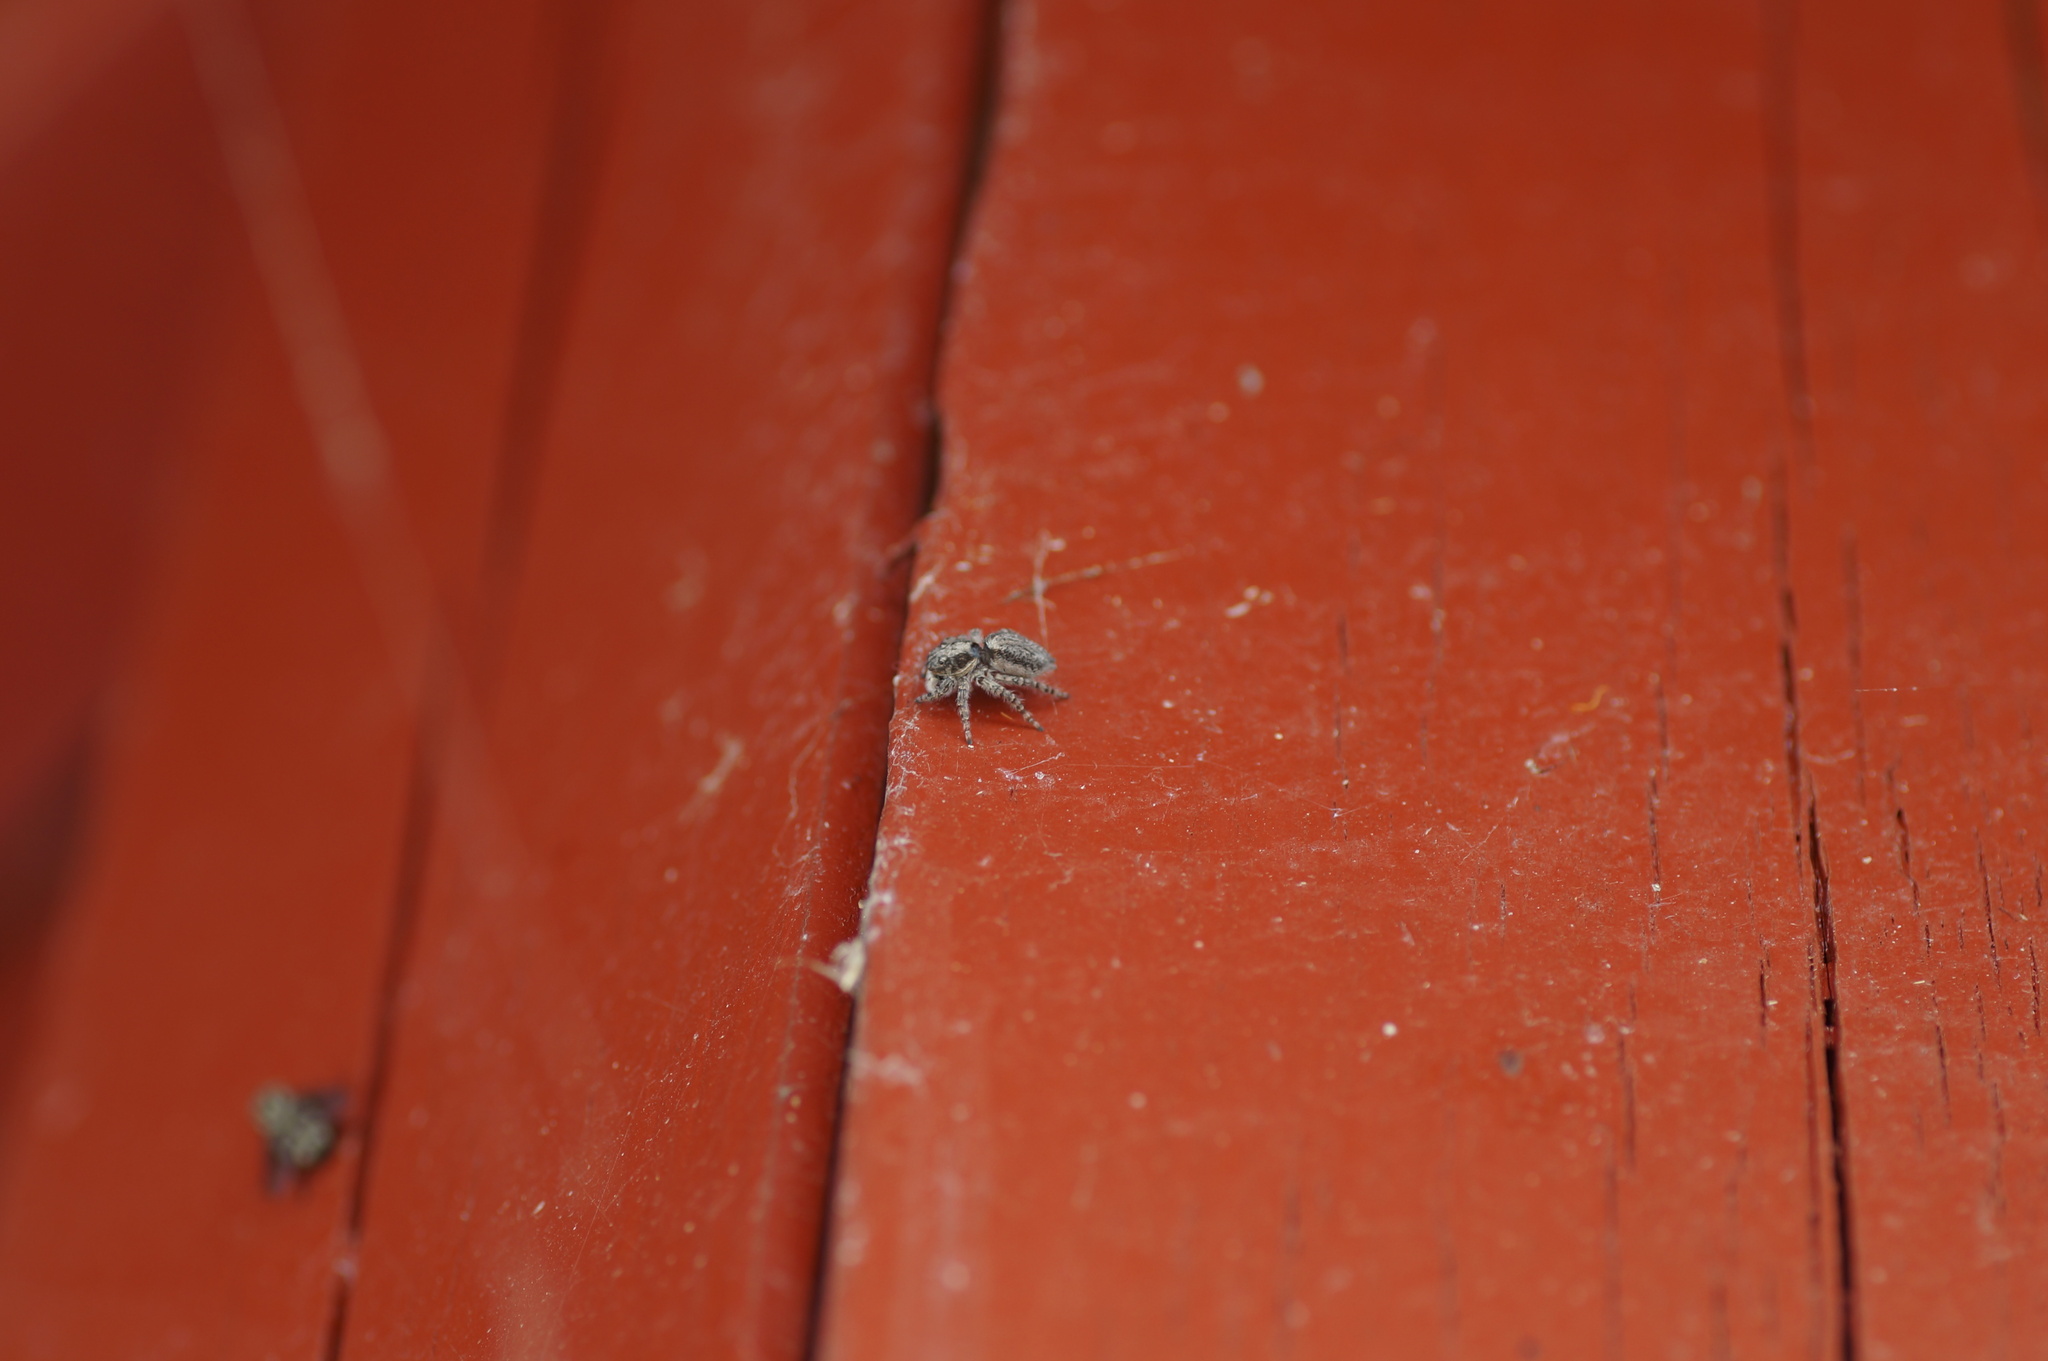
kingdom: Animalia
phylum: Arthropoda
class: Arachnida
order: Araneae
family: Salticidae
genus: Menemerus
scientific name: Menemerus taeniatus
